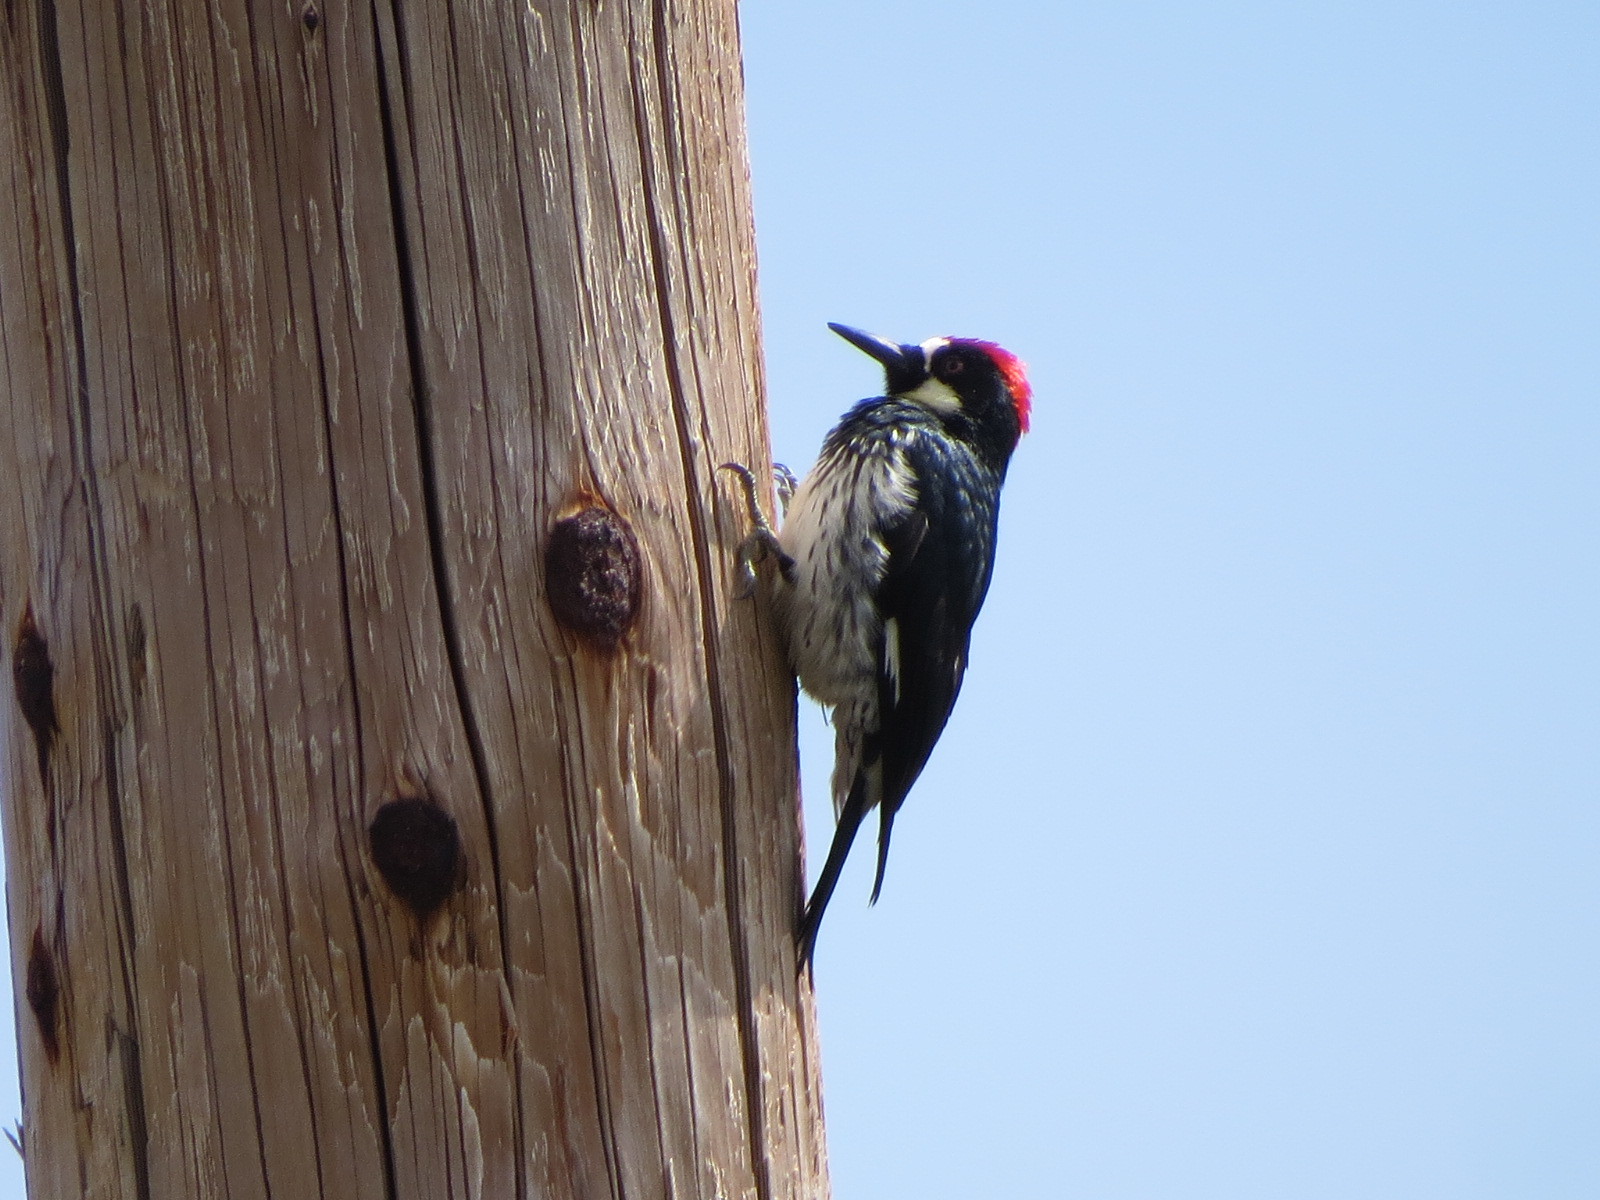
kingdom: Animalia
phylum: Chordata
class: Aves
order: Piciformes
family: Picidae
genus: Melanerpes
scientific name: Melanerpes formicivorus
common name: Acorn woodpecker
